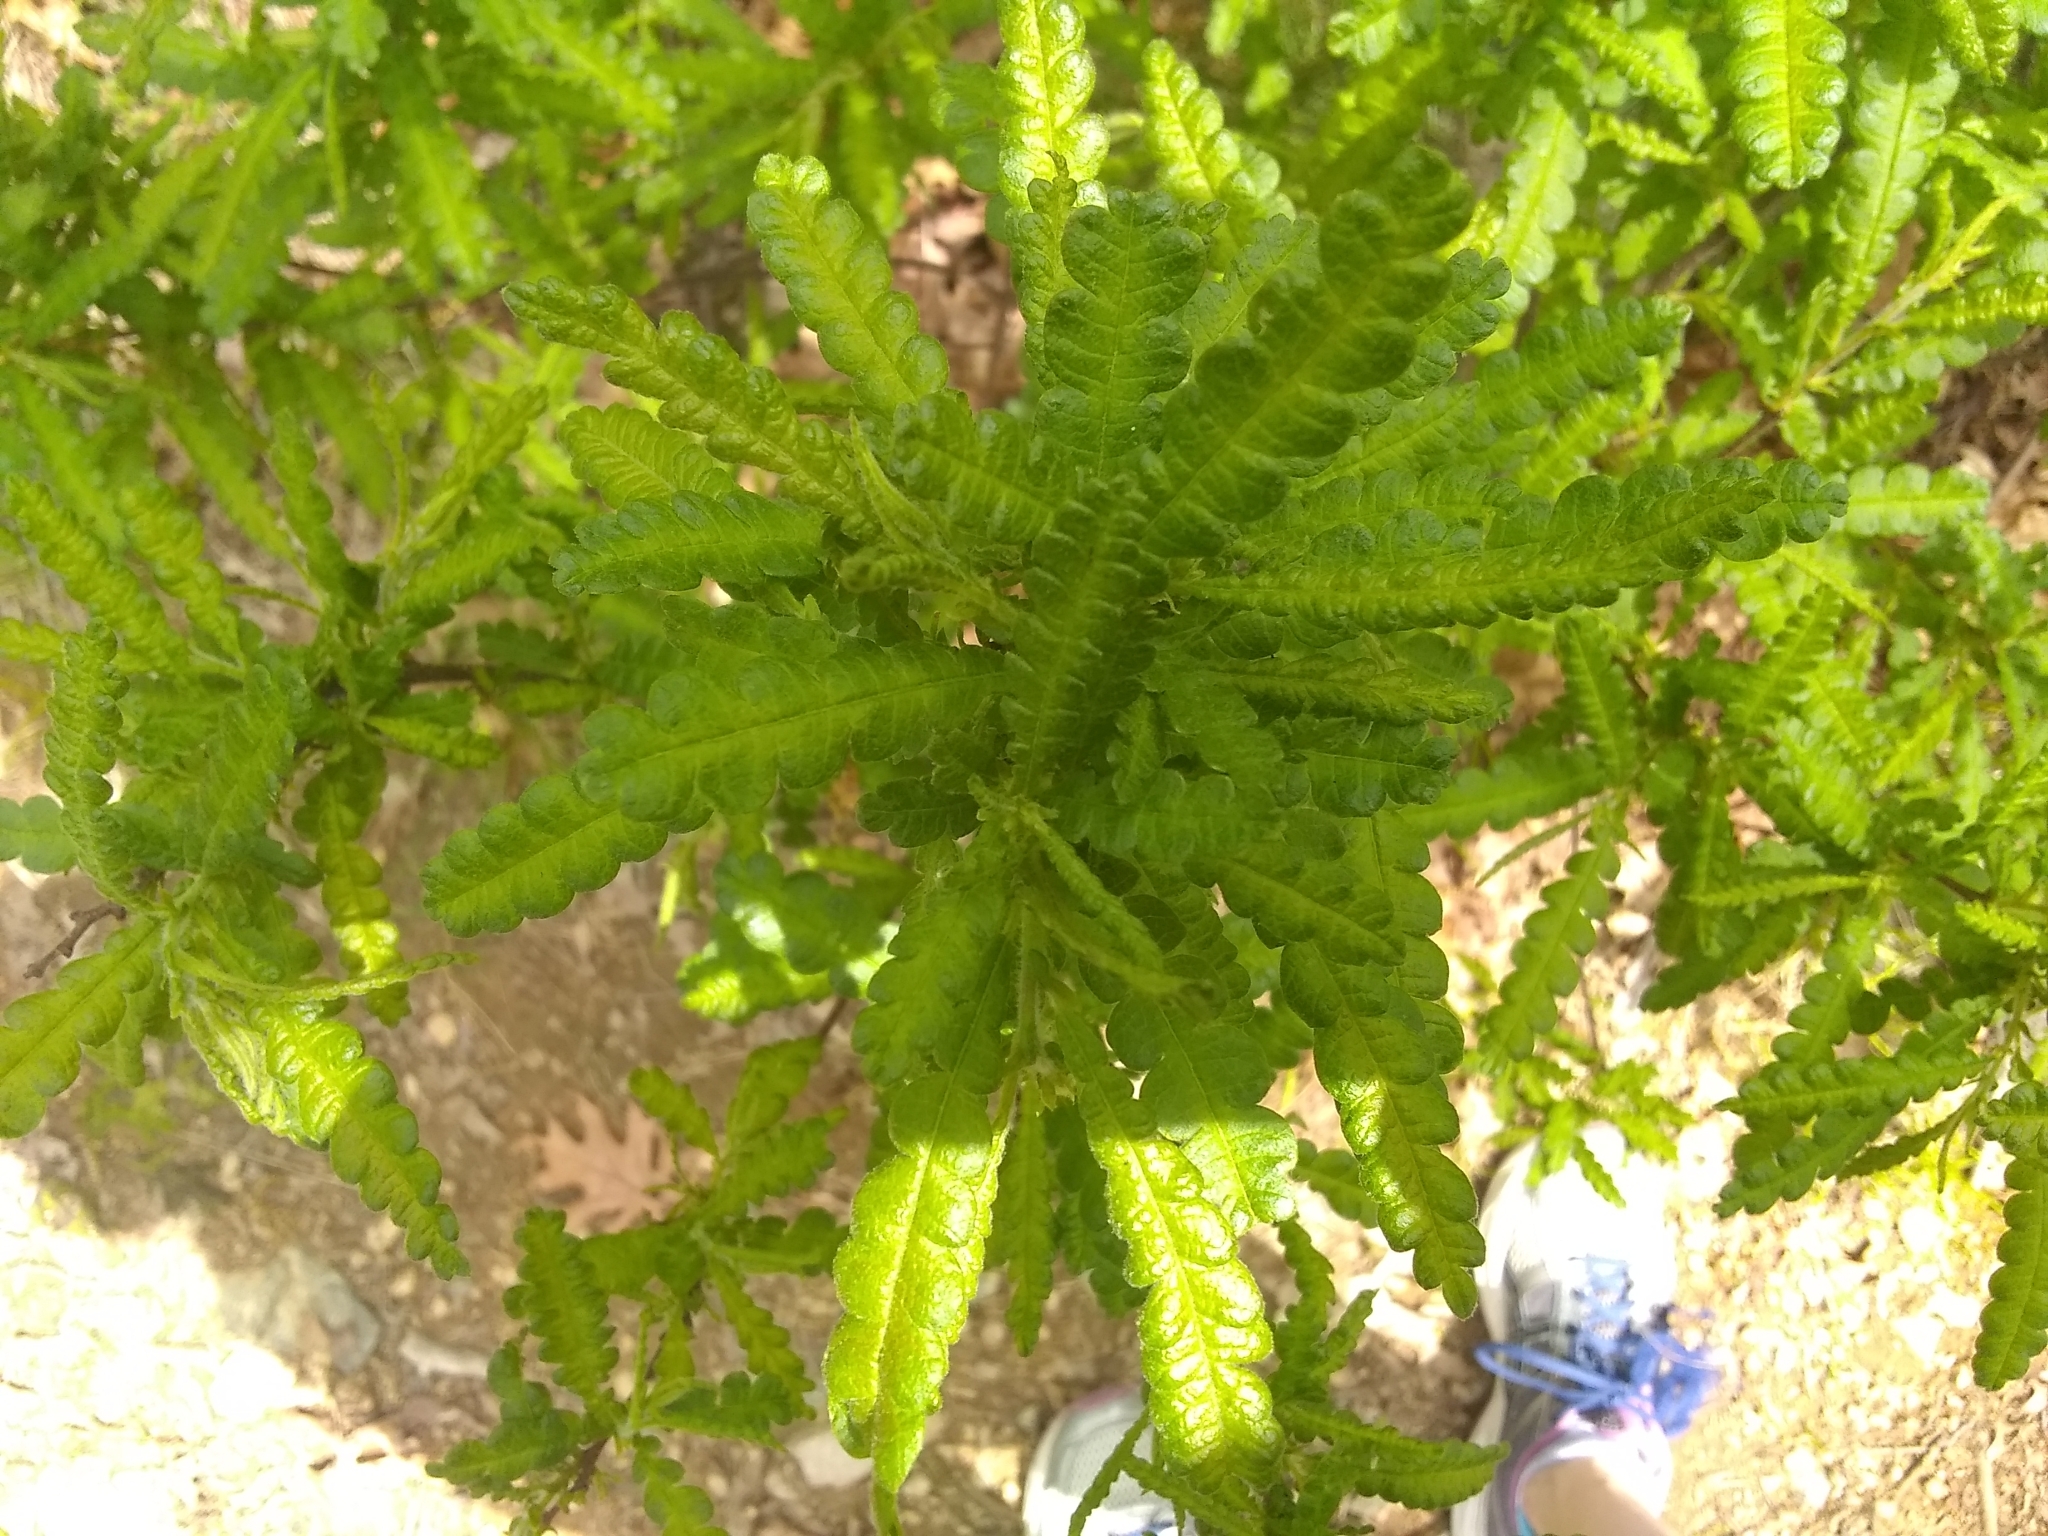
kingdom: Plantae
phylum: Tracheophyta
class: Magnoliopsida
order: Fagales
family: Myricaceae
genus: Comptonia
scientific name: Comptonia peregrina
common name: Sweet-fern
